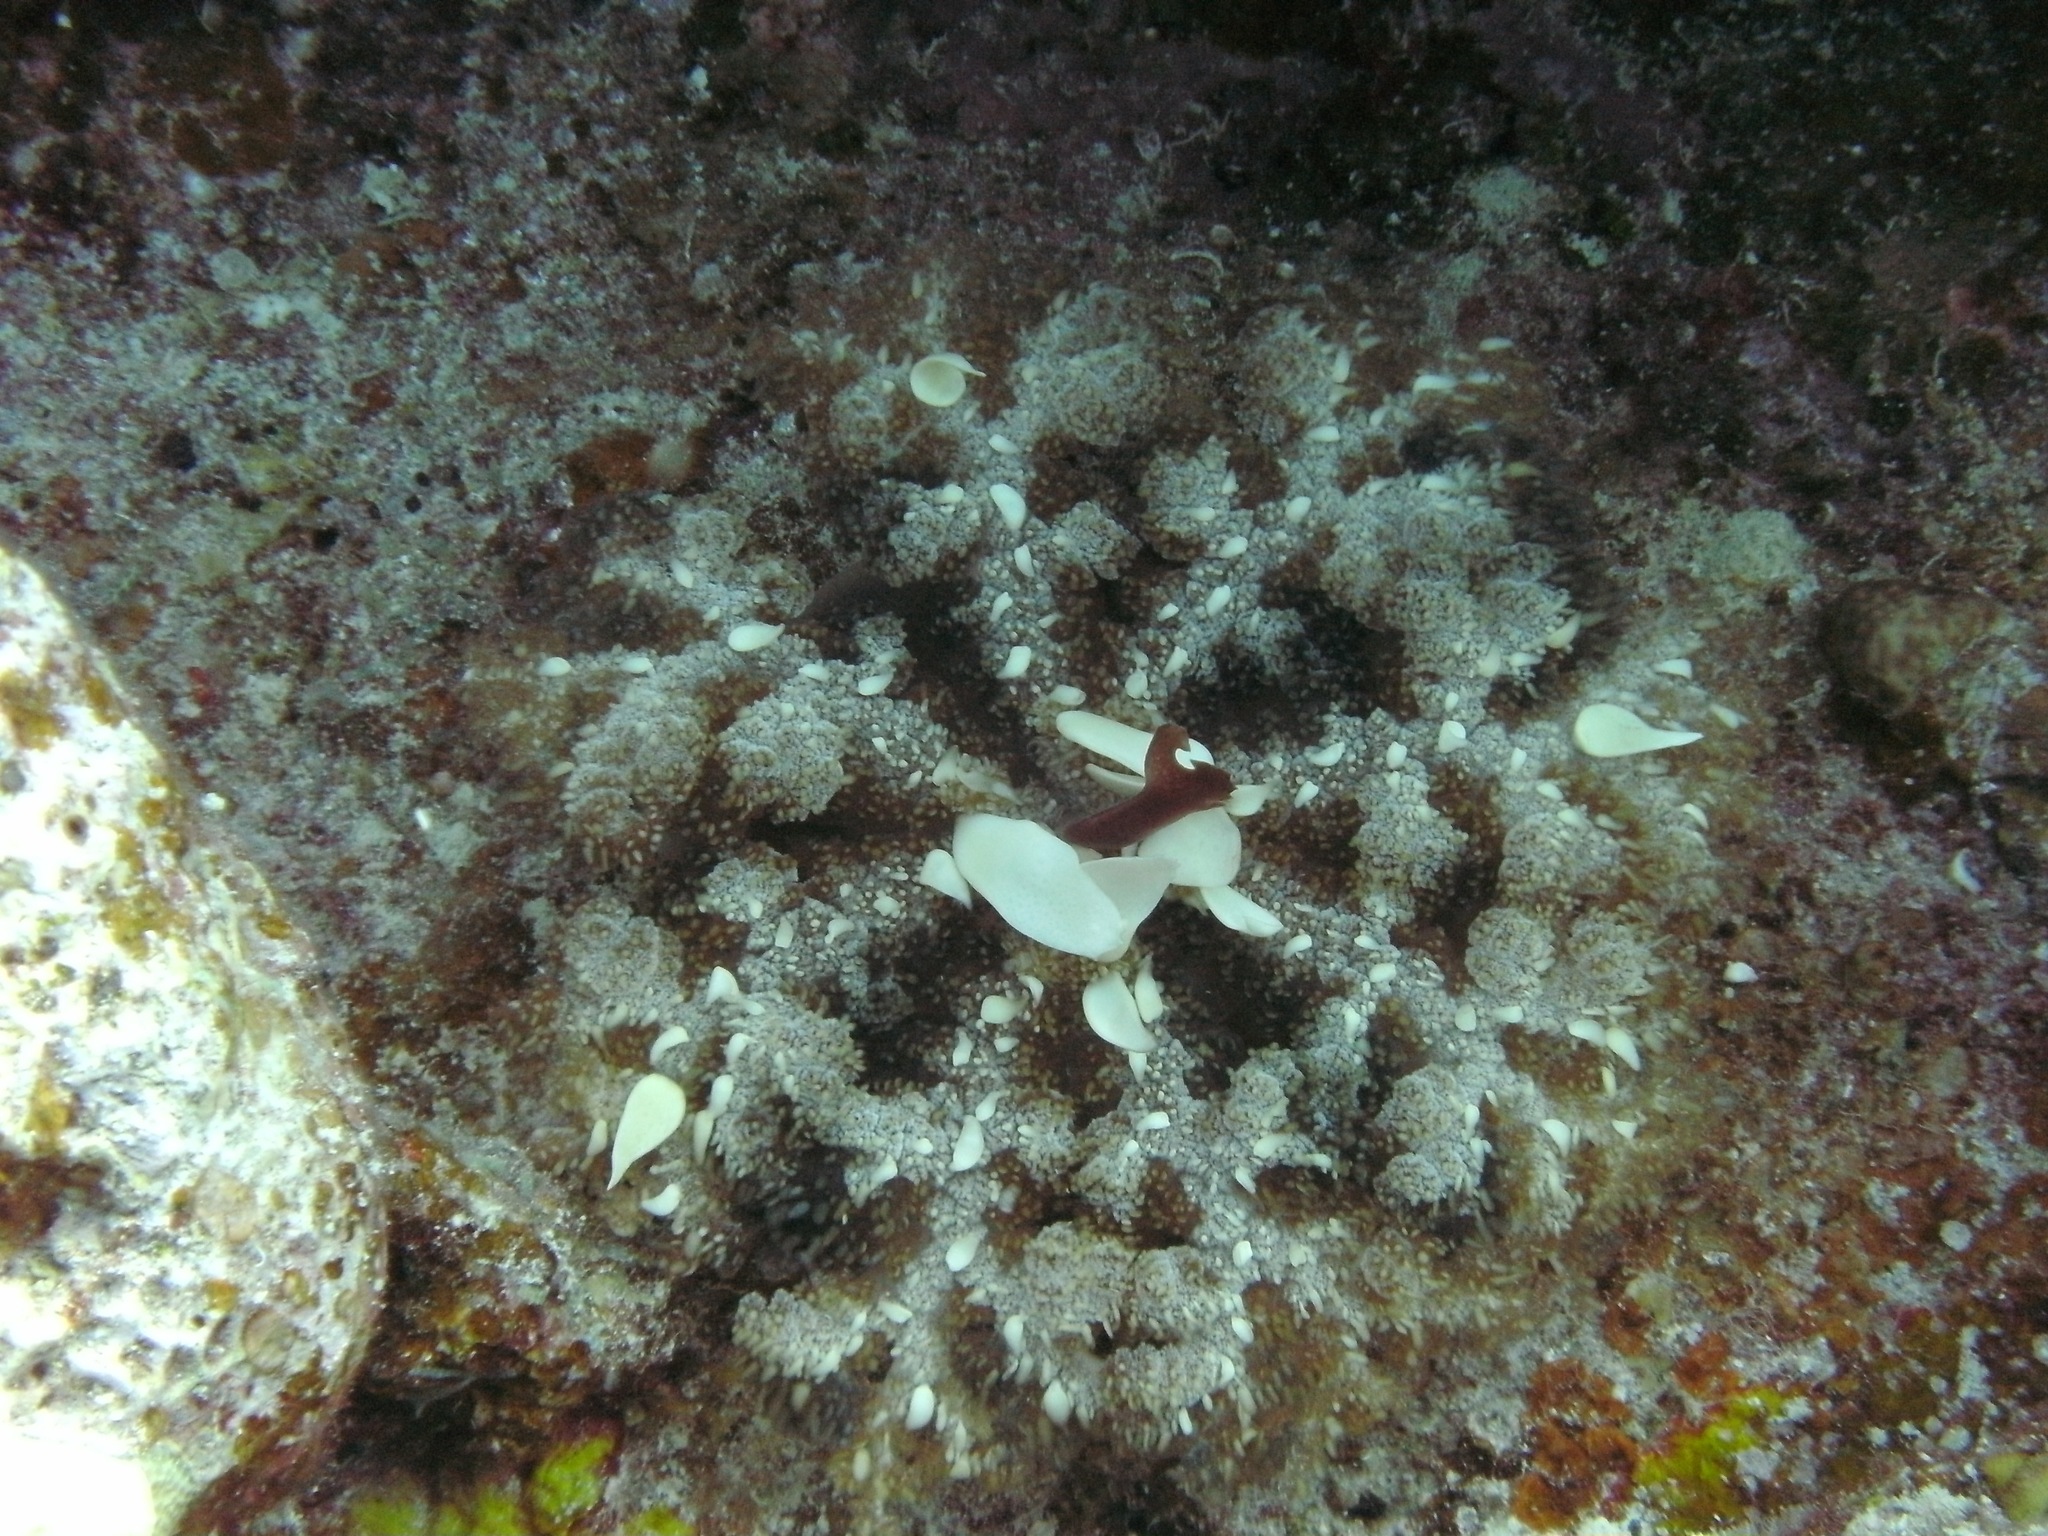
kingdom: Animalia
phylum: Cnidaria
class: Scyphozoa
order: Rhizostomeae
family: Cassiopeidae
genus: Cassiopea
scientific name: Cassiopea andromeda
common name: Upside-down jellyfish
